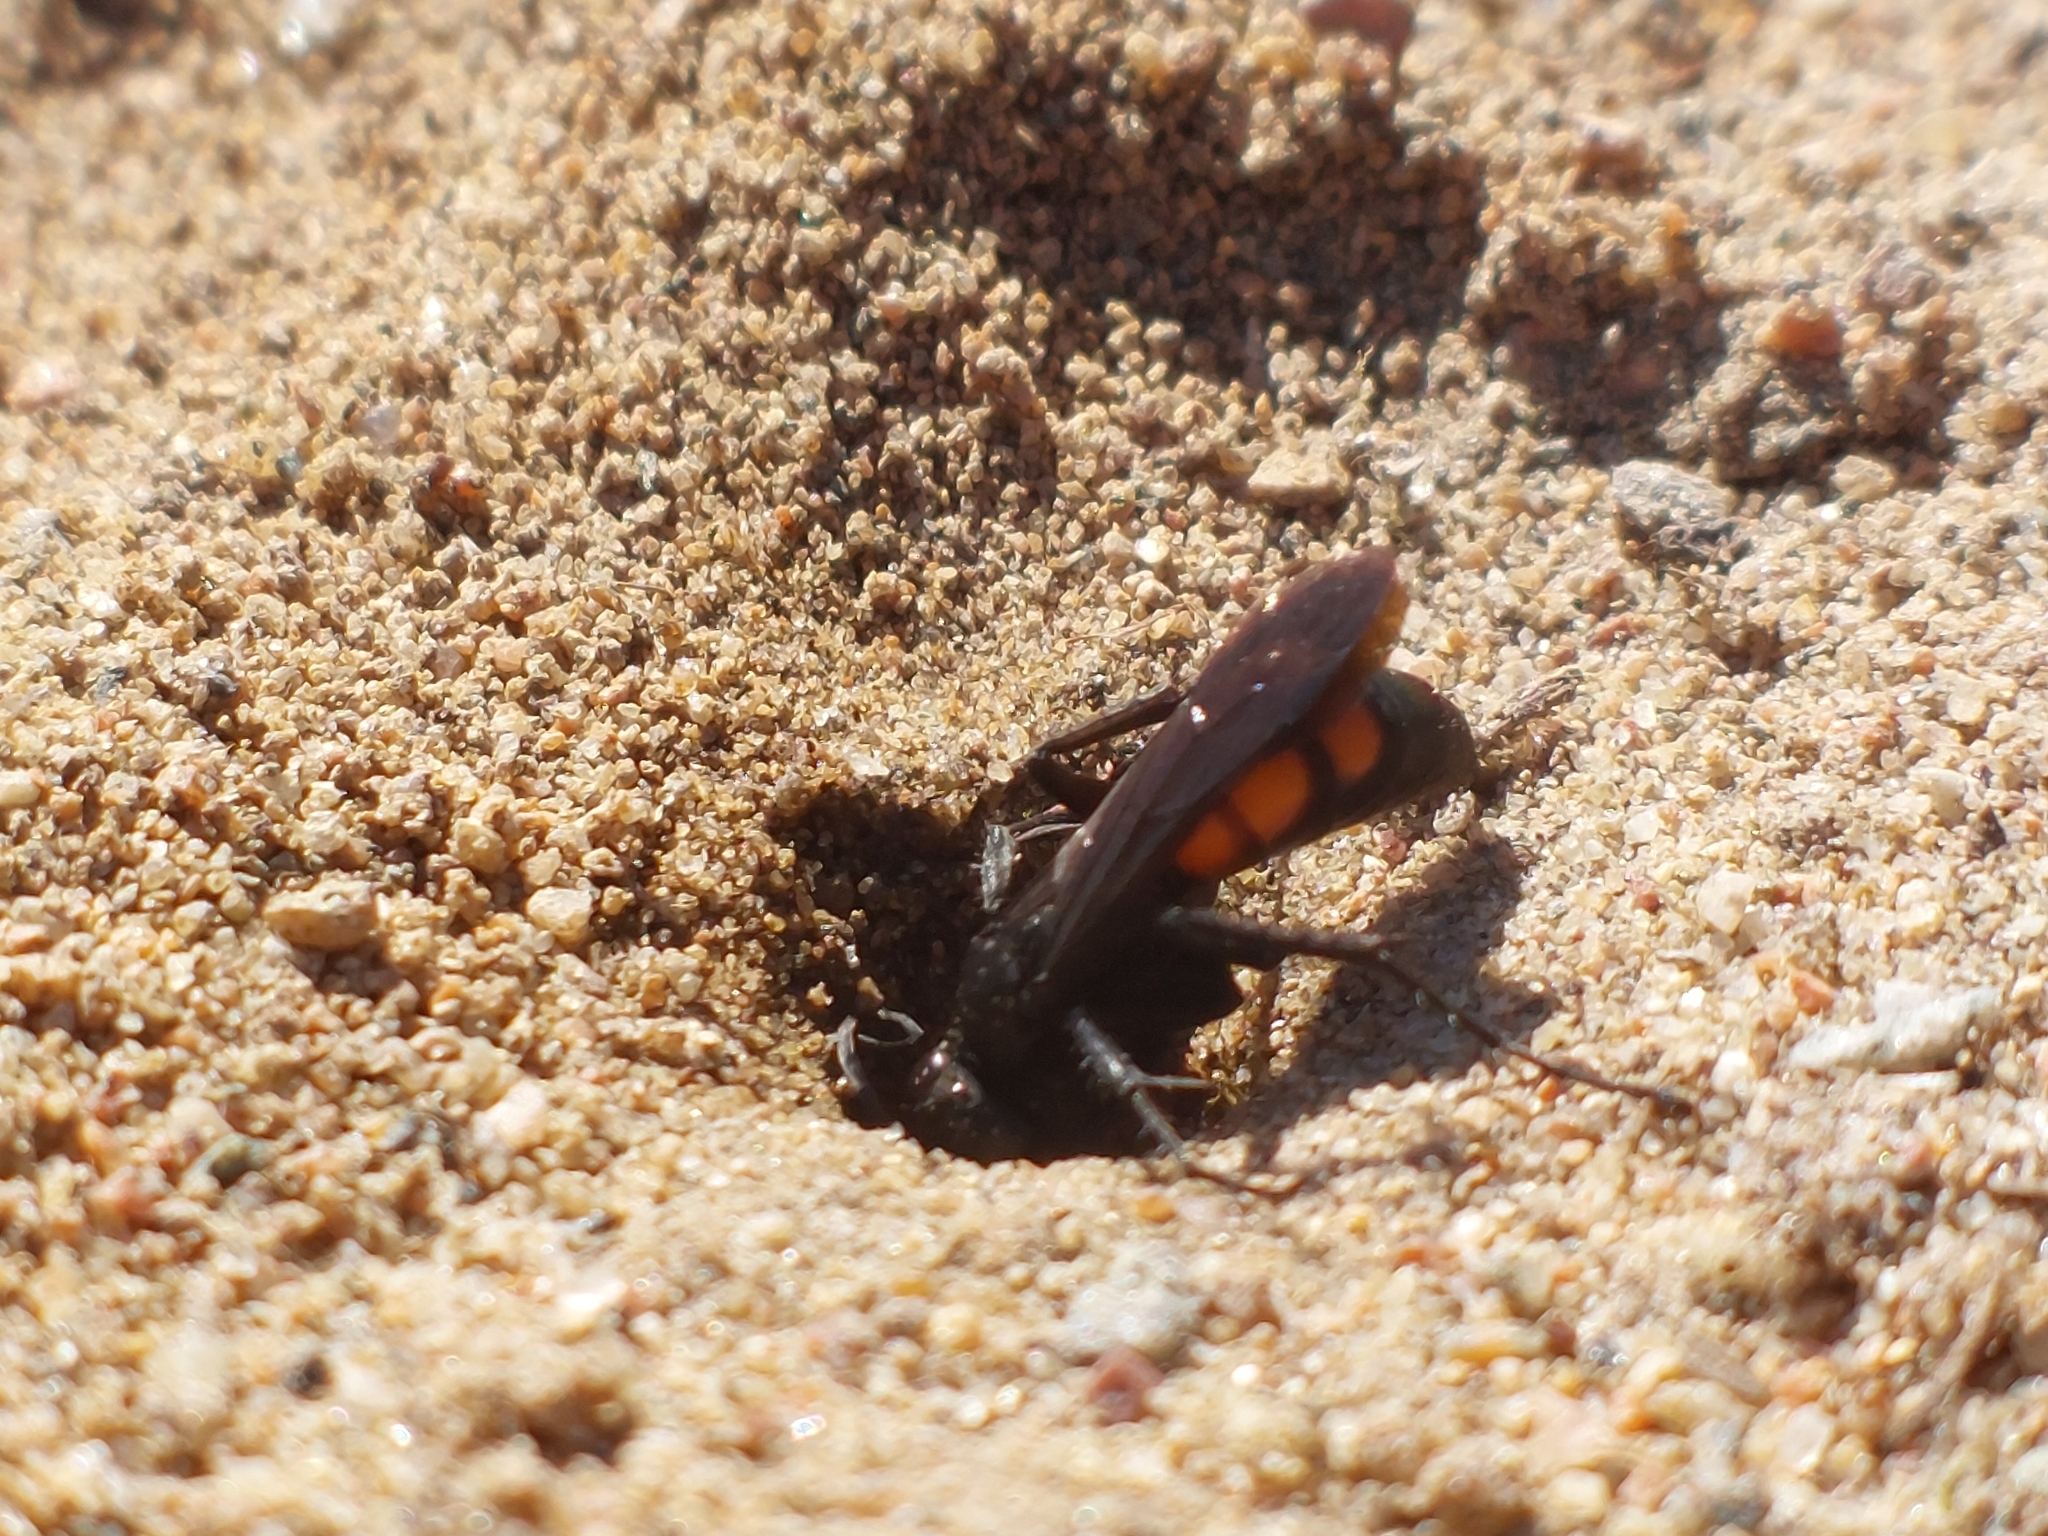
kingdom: Animalia
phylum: Arthropoda
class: Insecta
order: Hymenoptera
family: Pompilidae
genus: Anoplius
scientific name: Anoplius viaticus
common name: Black banded spider wasp
